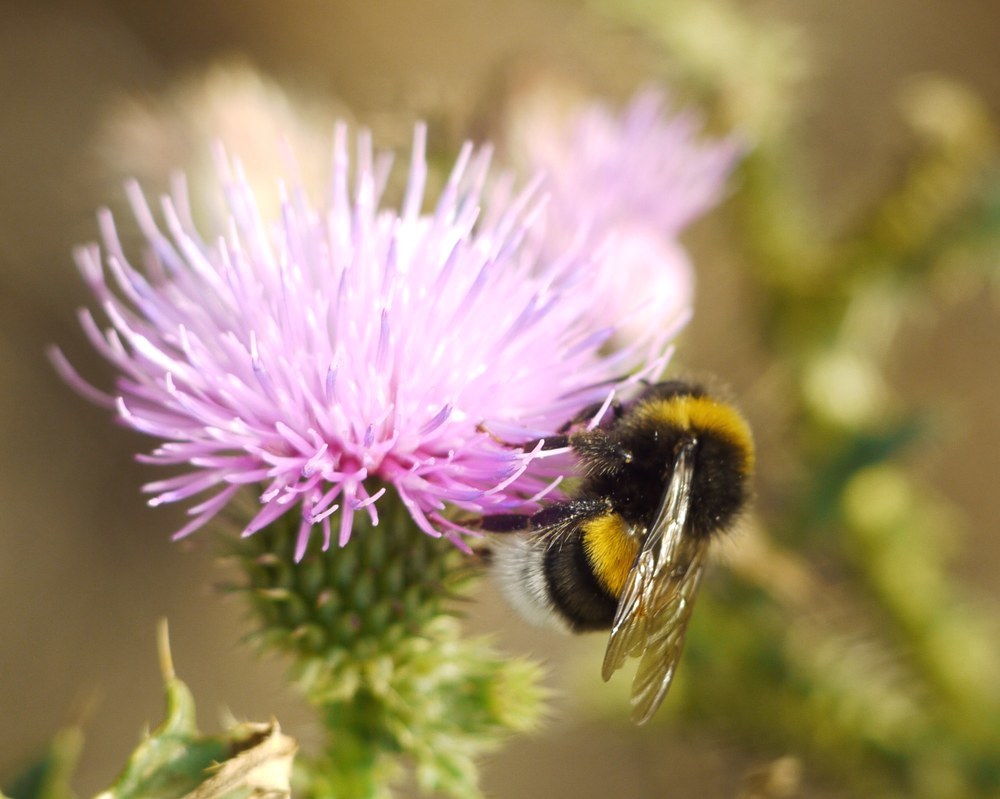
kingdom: Animalia
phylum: Arthropoda
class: Insecta
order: Hymenoptera
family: Apidae
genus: Bombus
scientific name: Bombus
